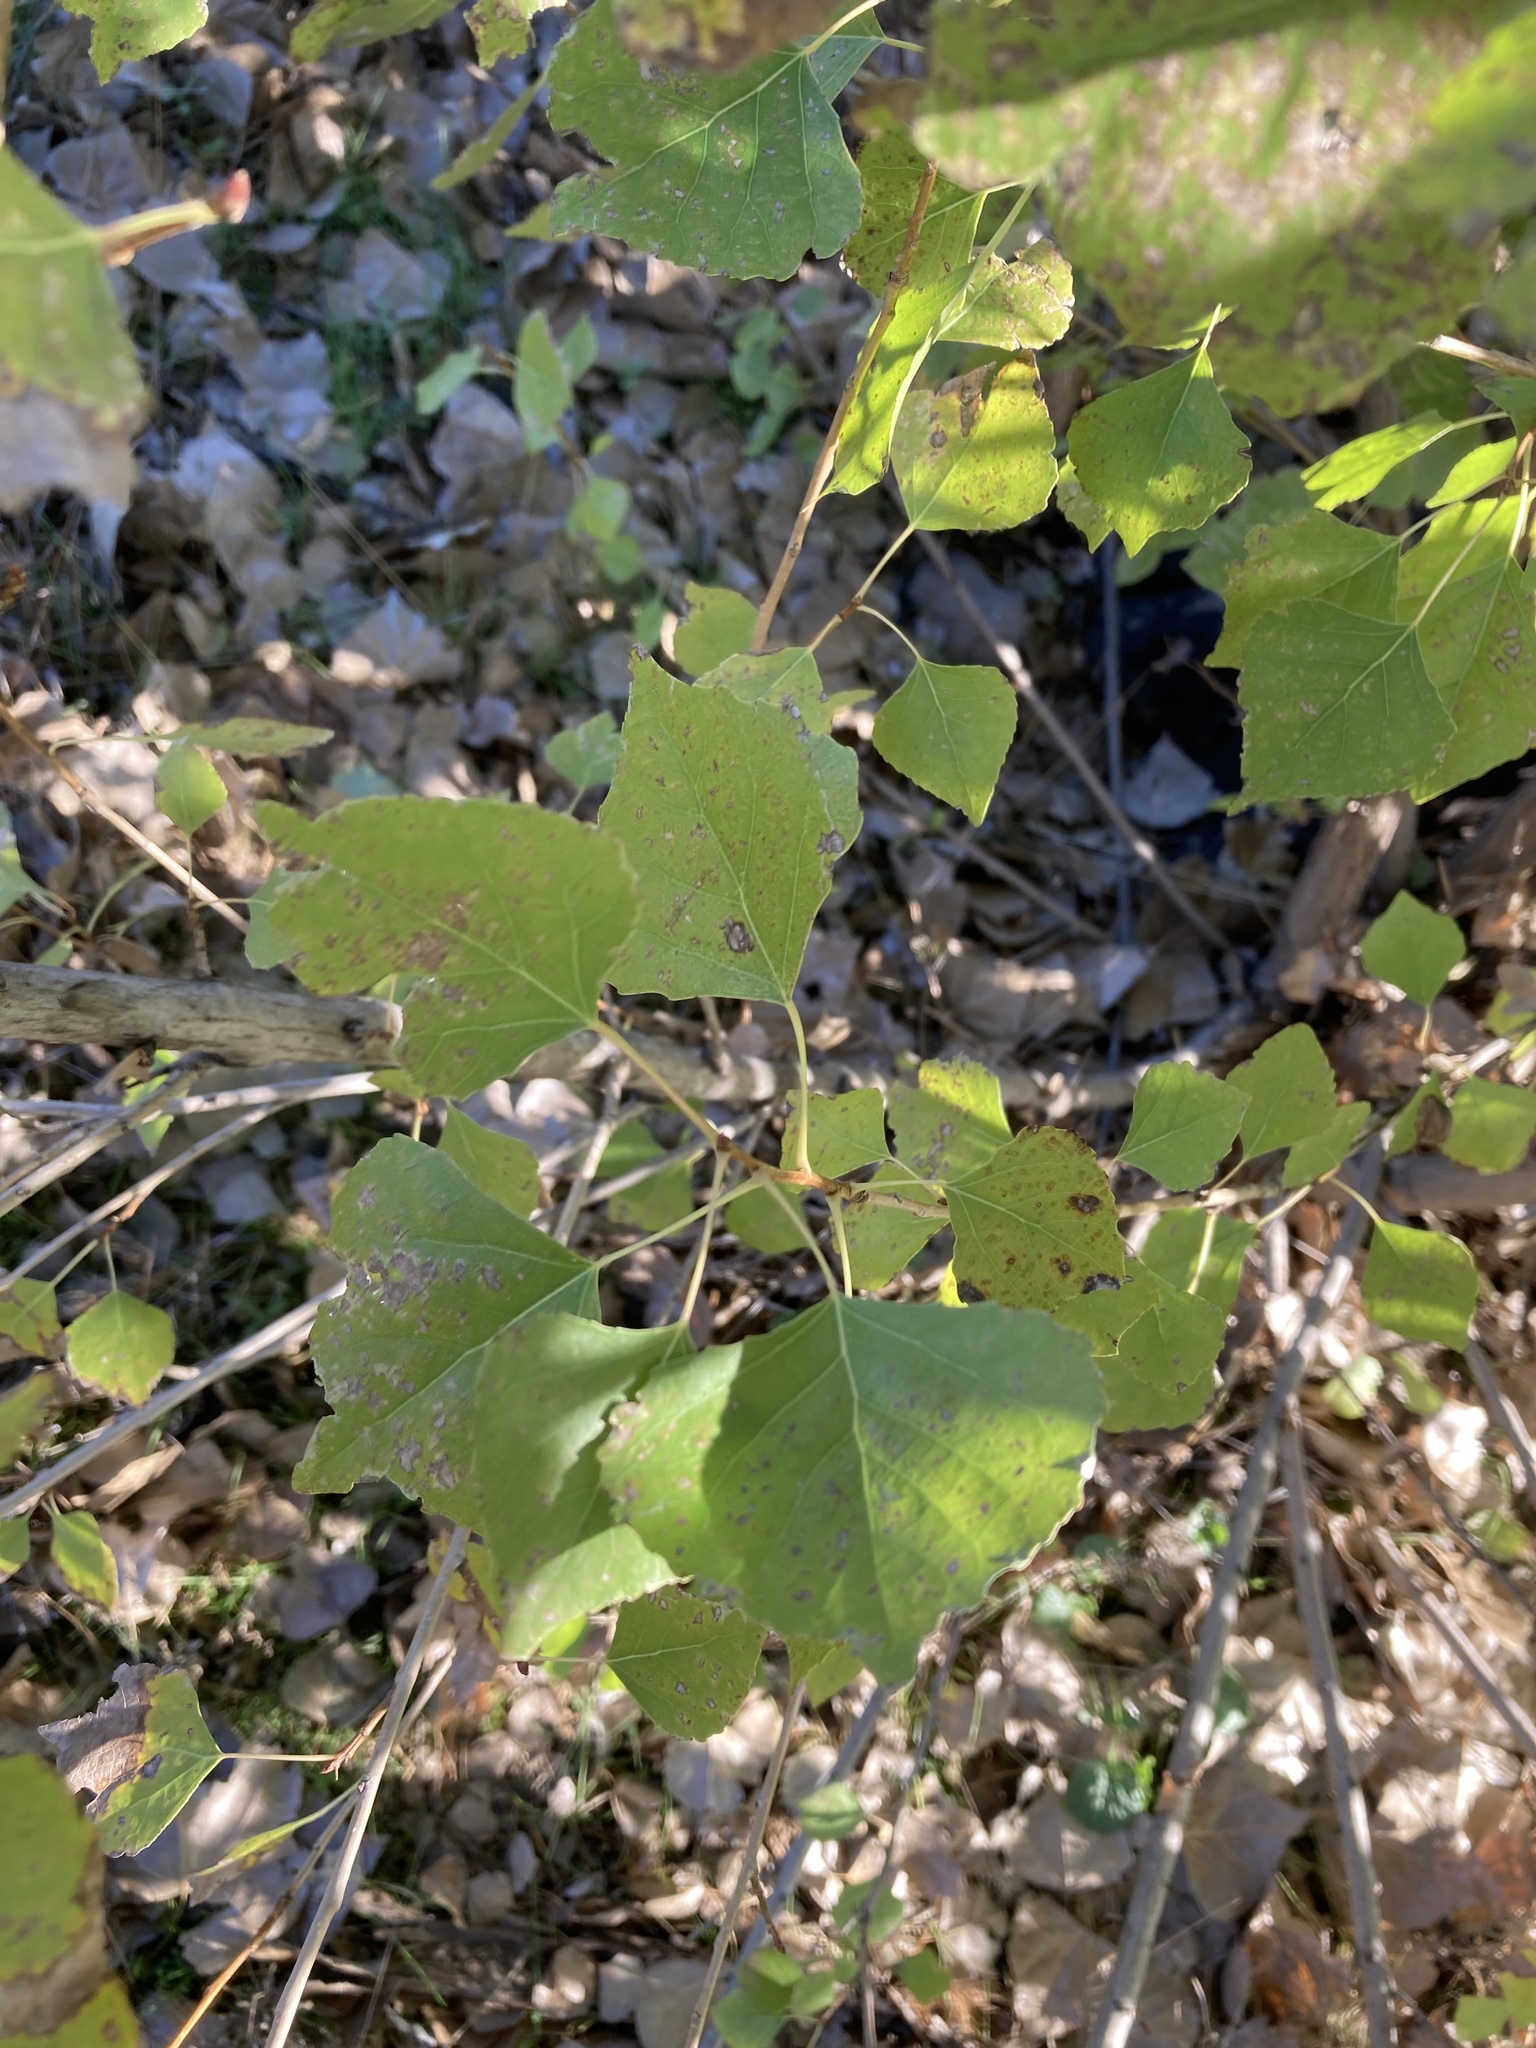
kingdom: Plantae
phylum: Tracheophyta
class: Magnoliopsida
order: Malpighiales
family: Salicaceae
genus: Populus
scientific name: Populus fremontii
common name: Fremont's cottonwood
